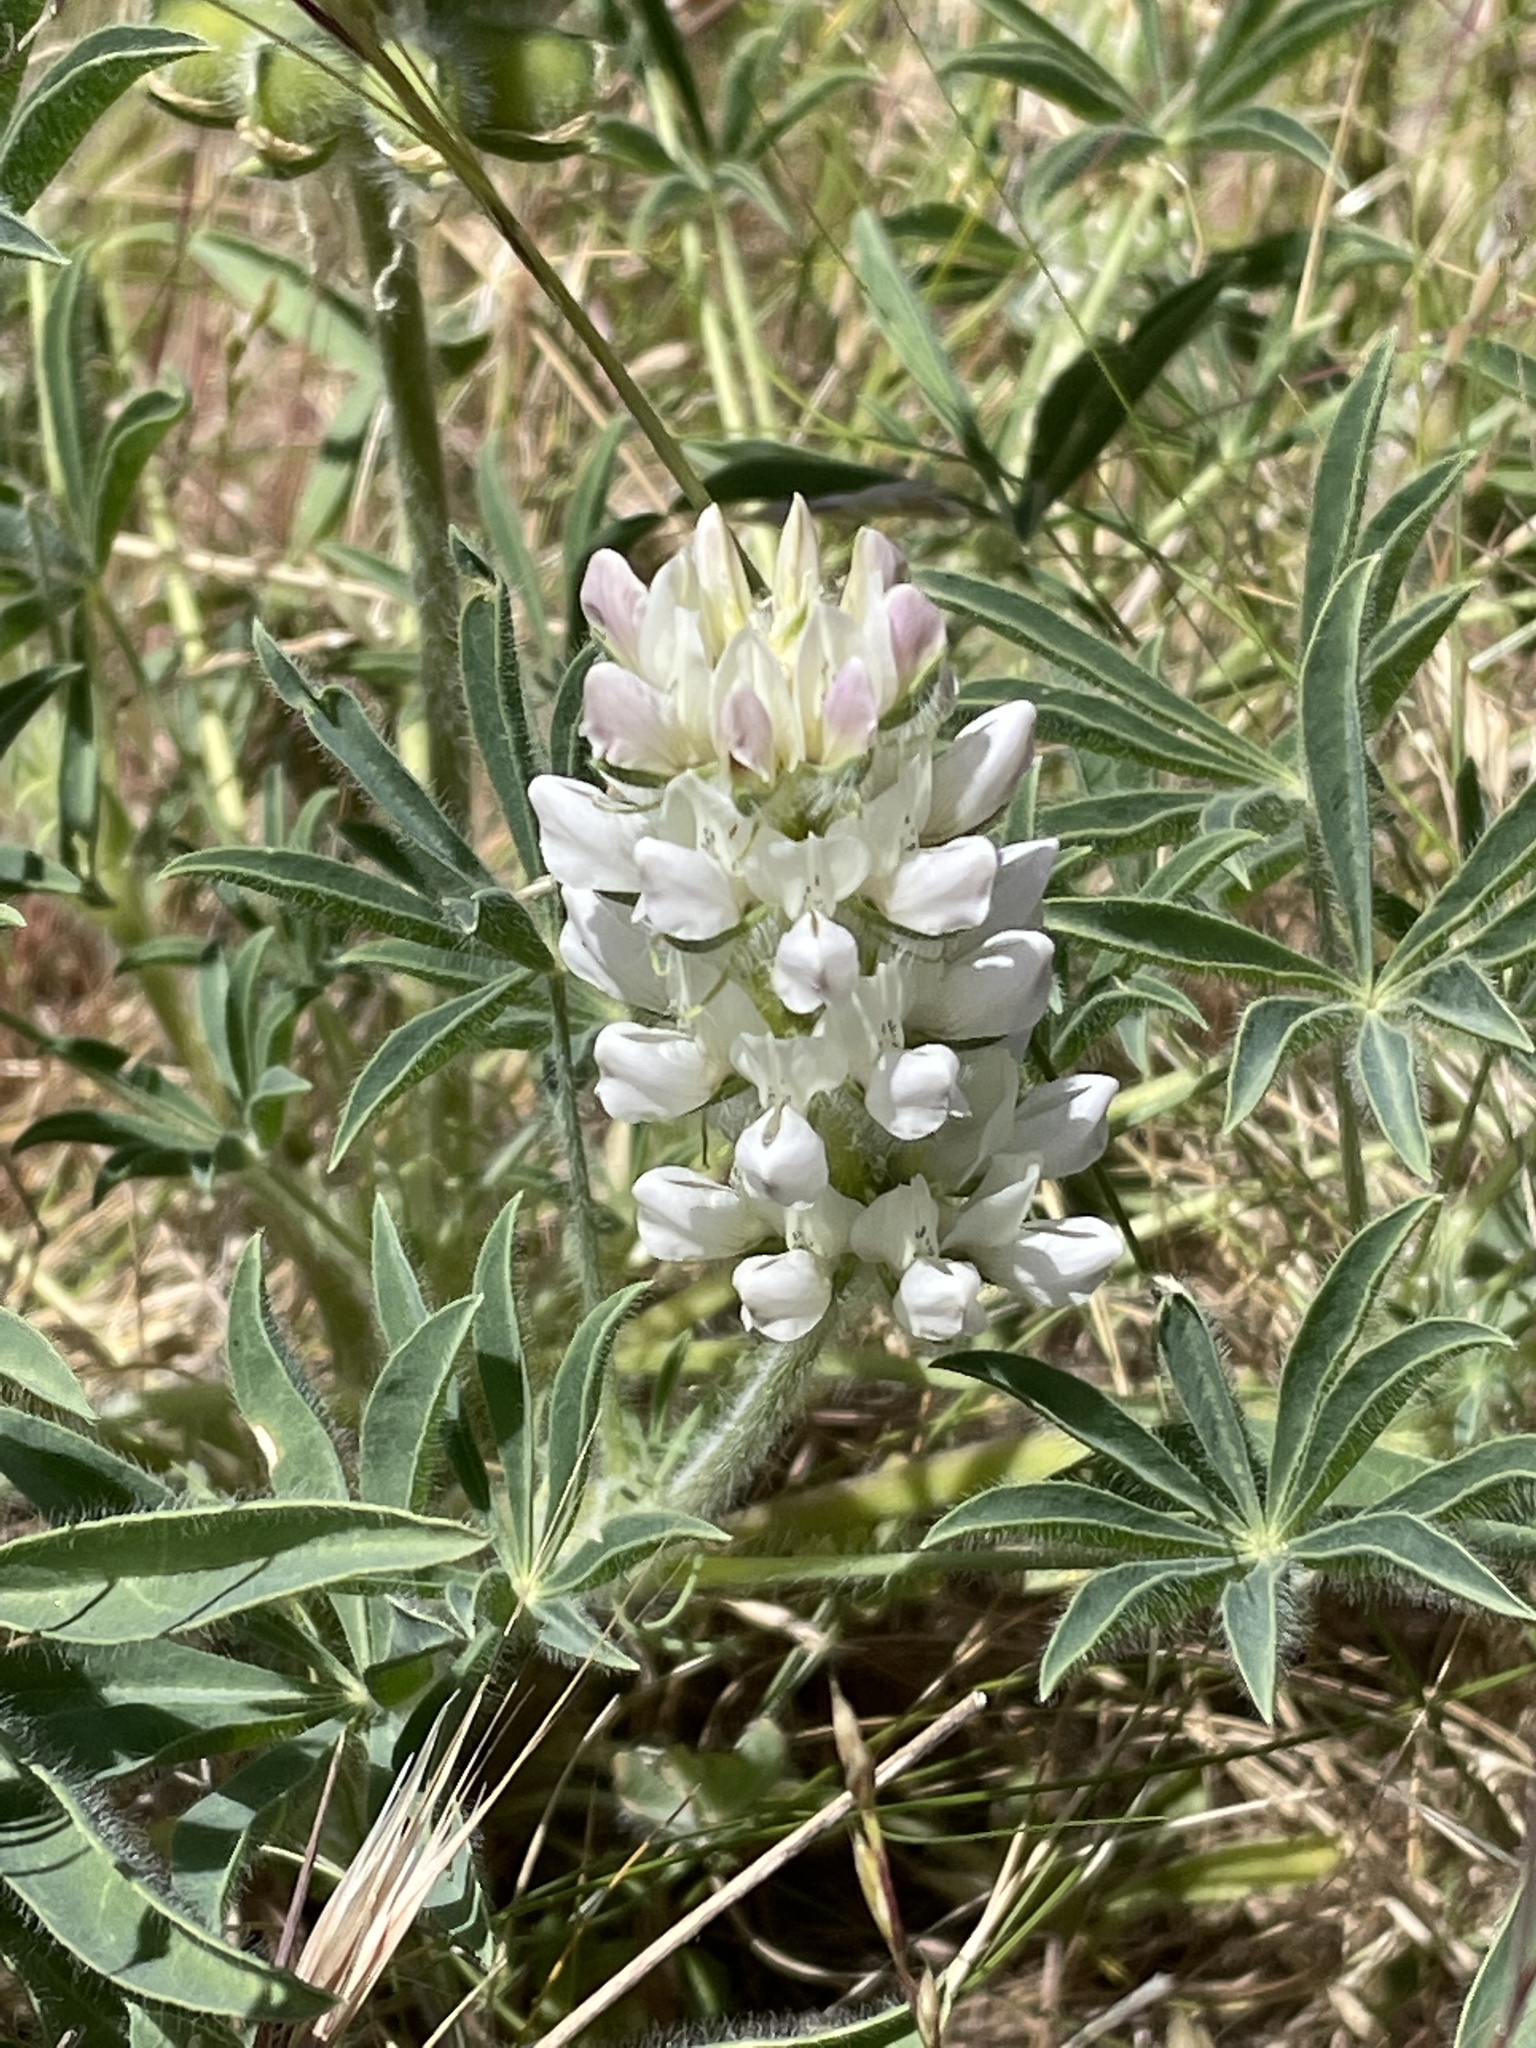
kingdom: Plantae
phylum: Tracheophyta
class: Magnoliopsida
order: Fabales
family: Fabaceae
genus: Lupinus
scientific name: Lupinus microcarpus
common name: Chick lupine
